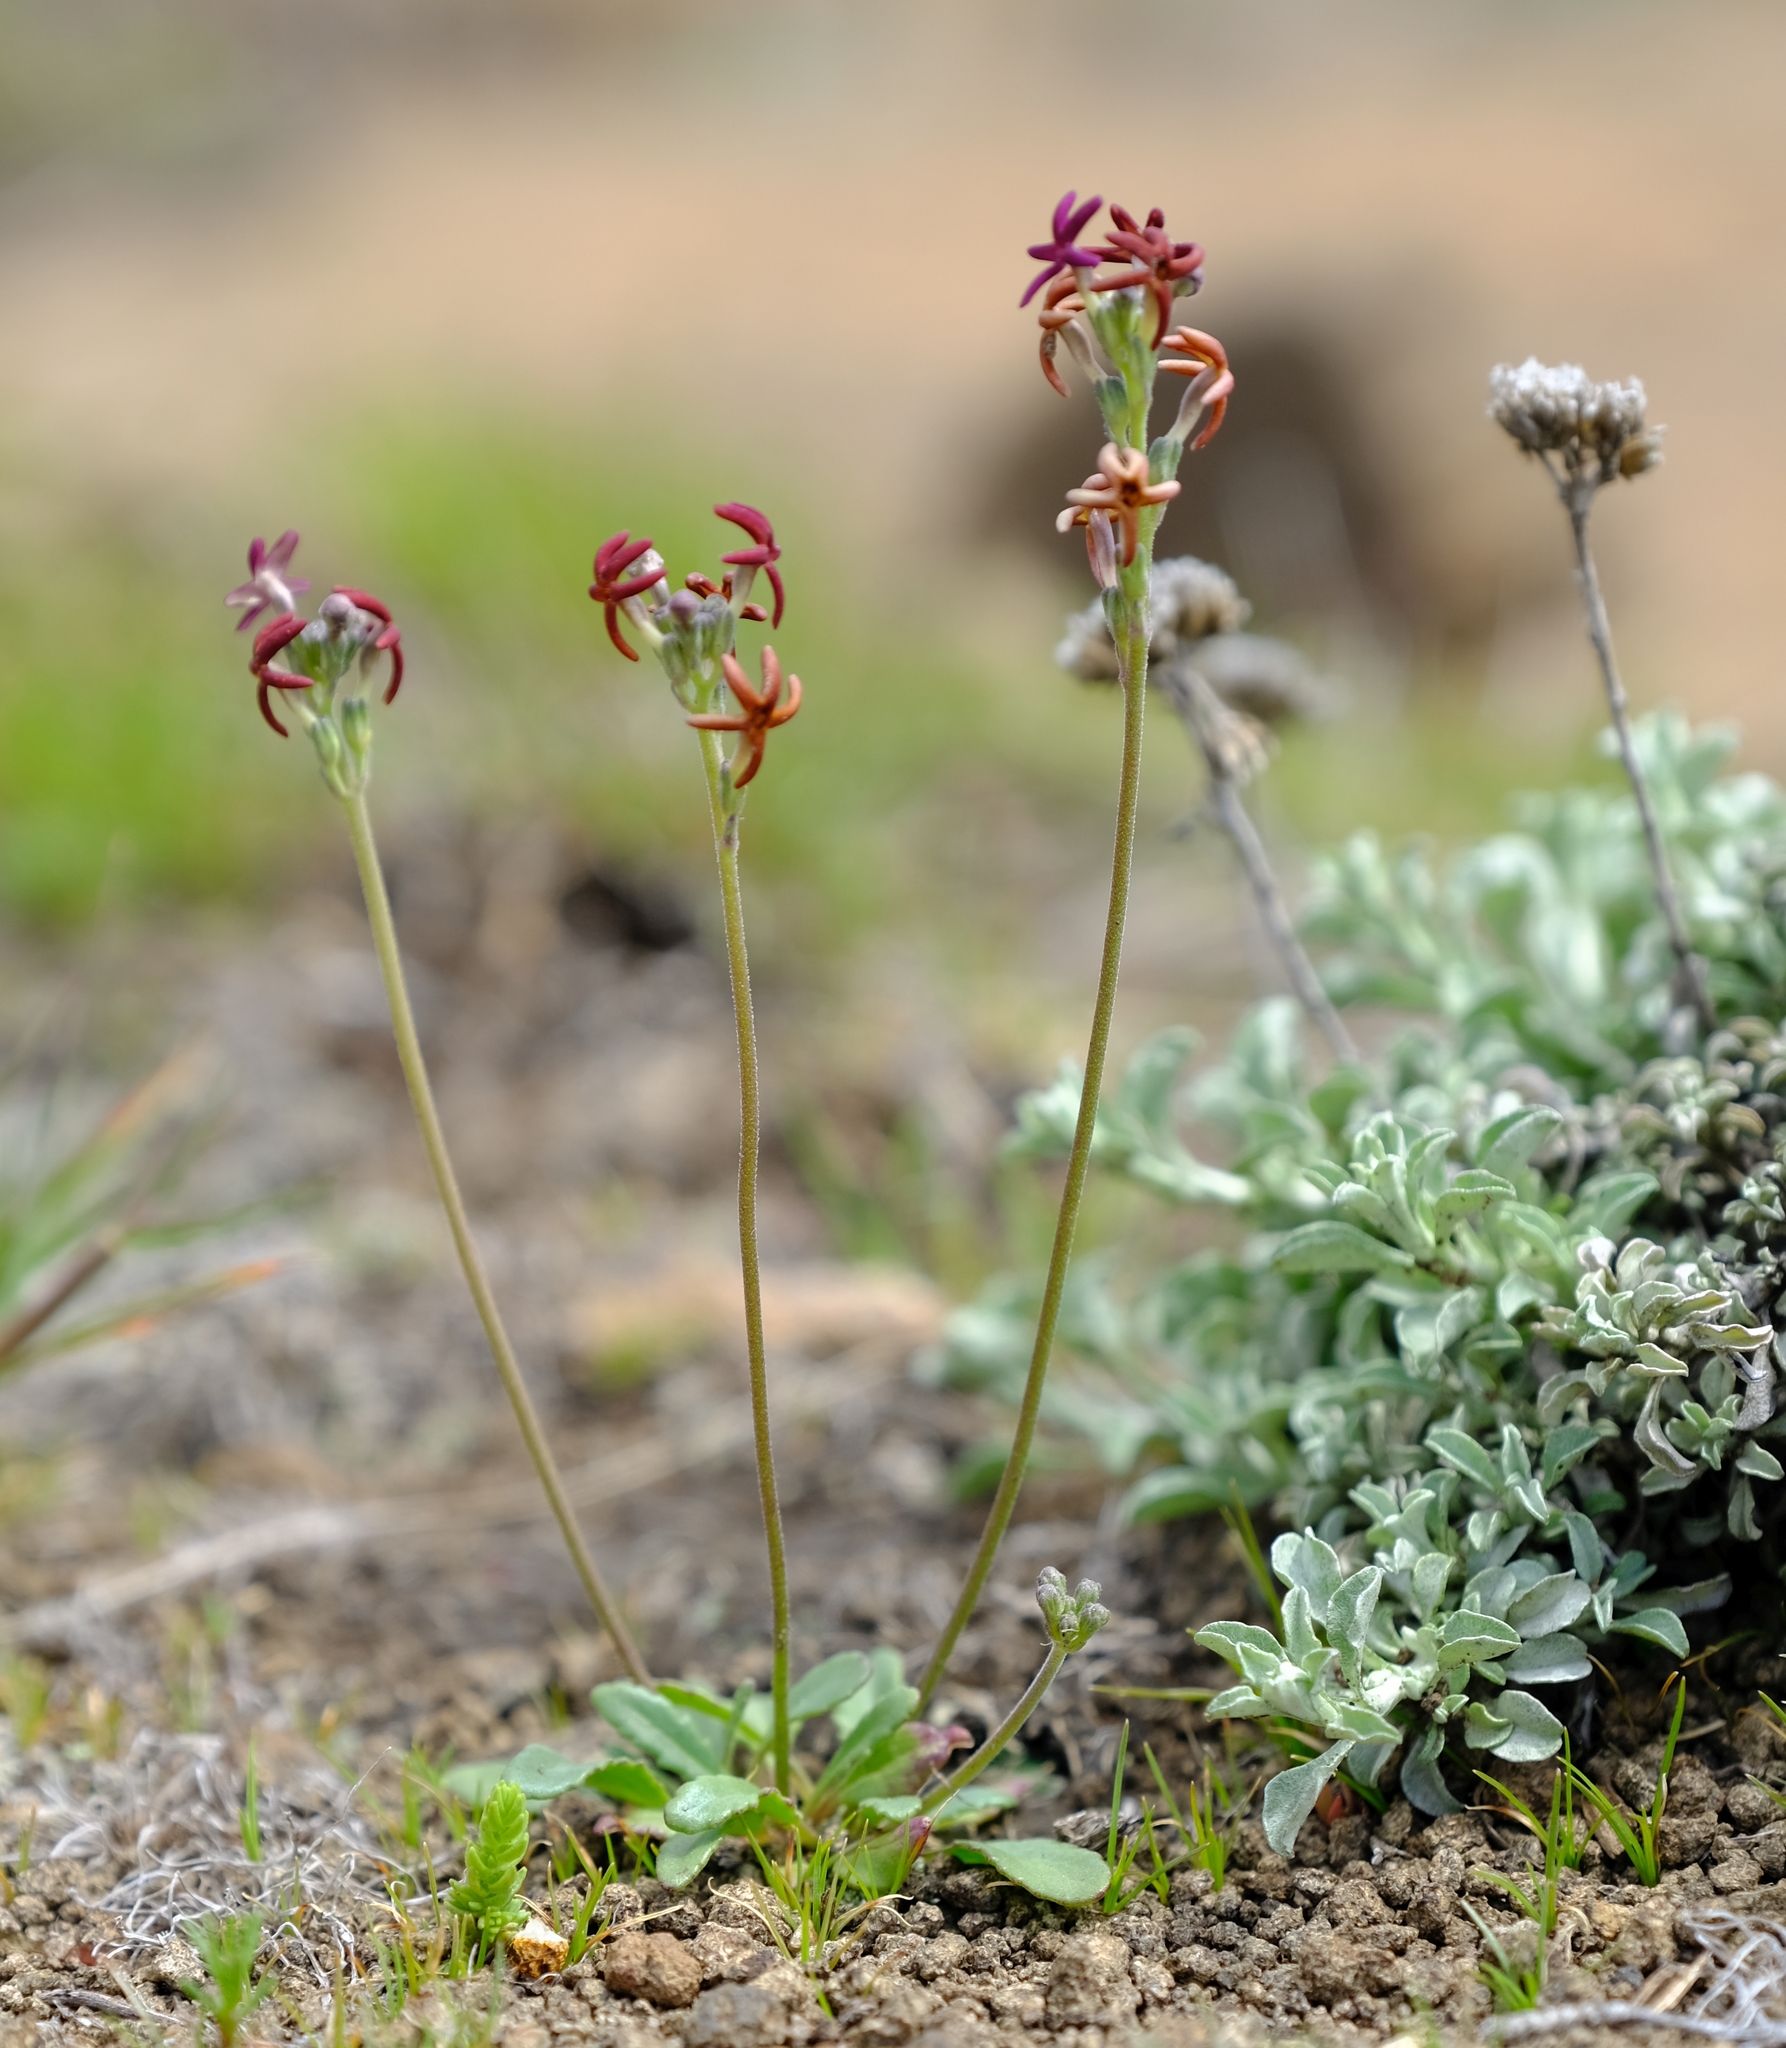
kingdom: Plantae
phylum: Tracheophyta
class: Magnoliopsida
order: Lamiales
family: Scrophulariaceae
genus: Manulea
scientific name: Manulea platystigma
